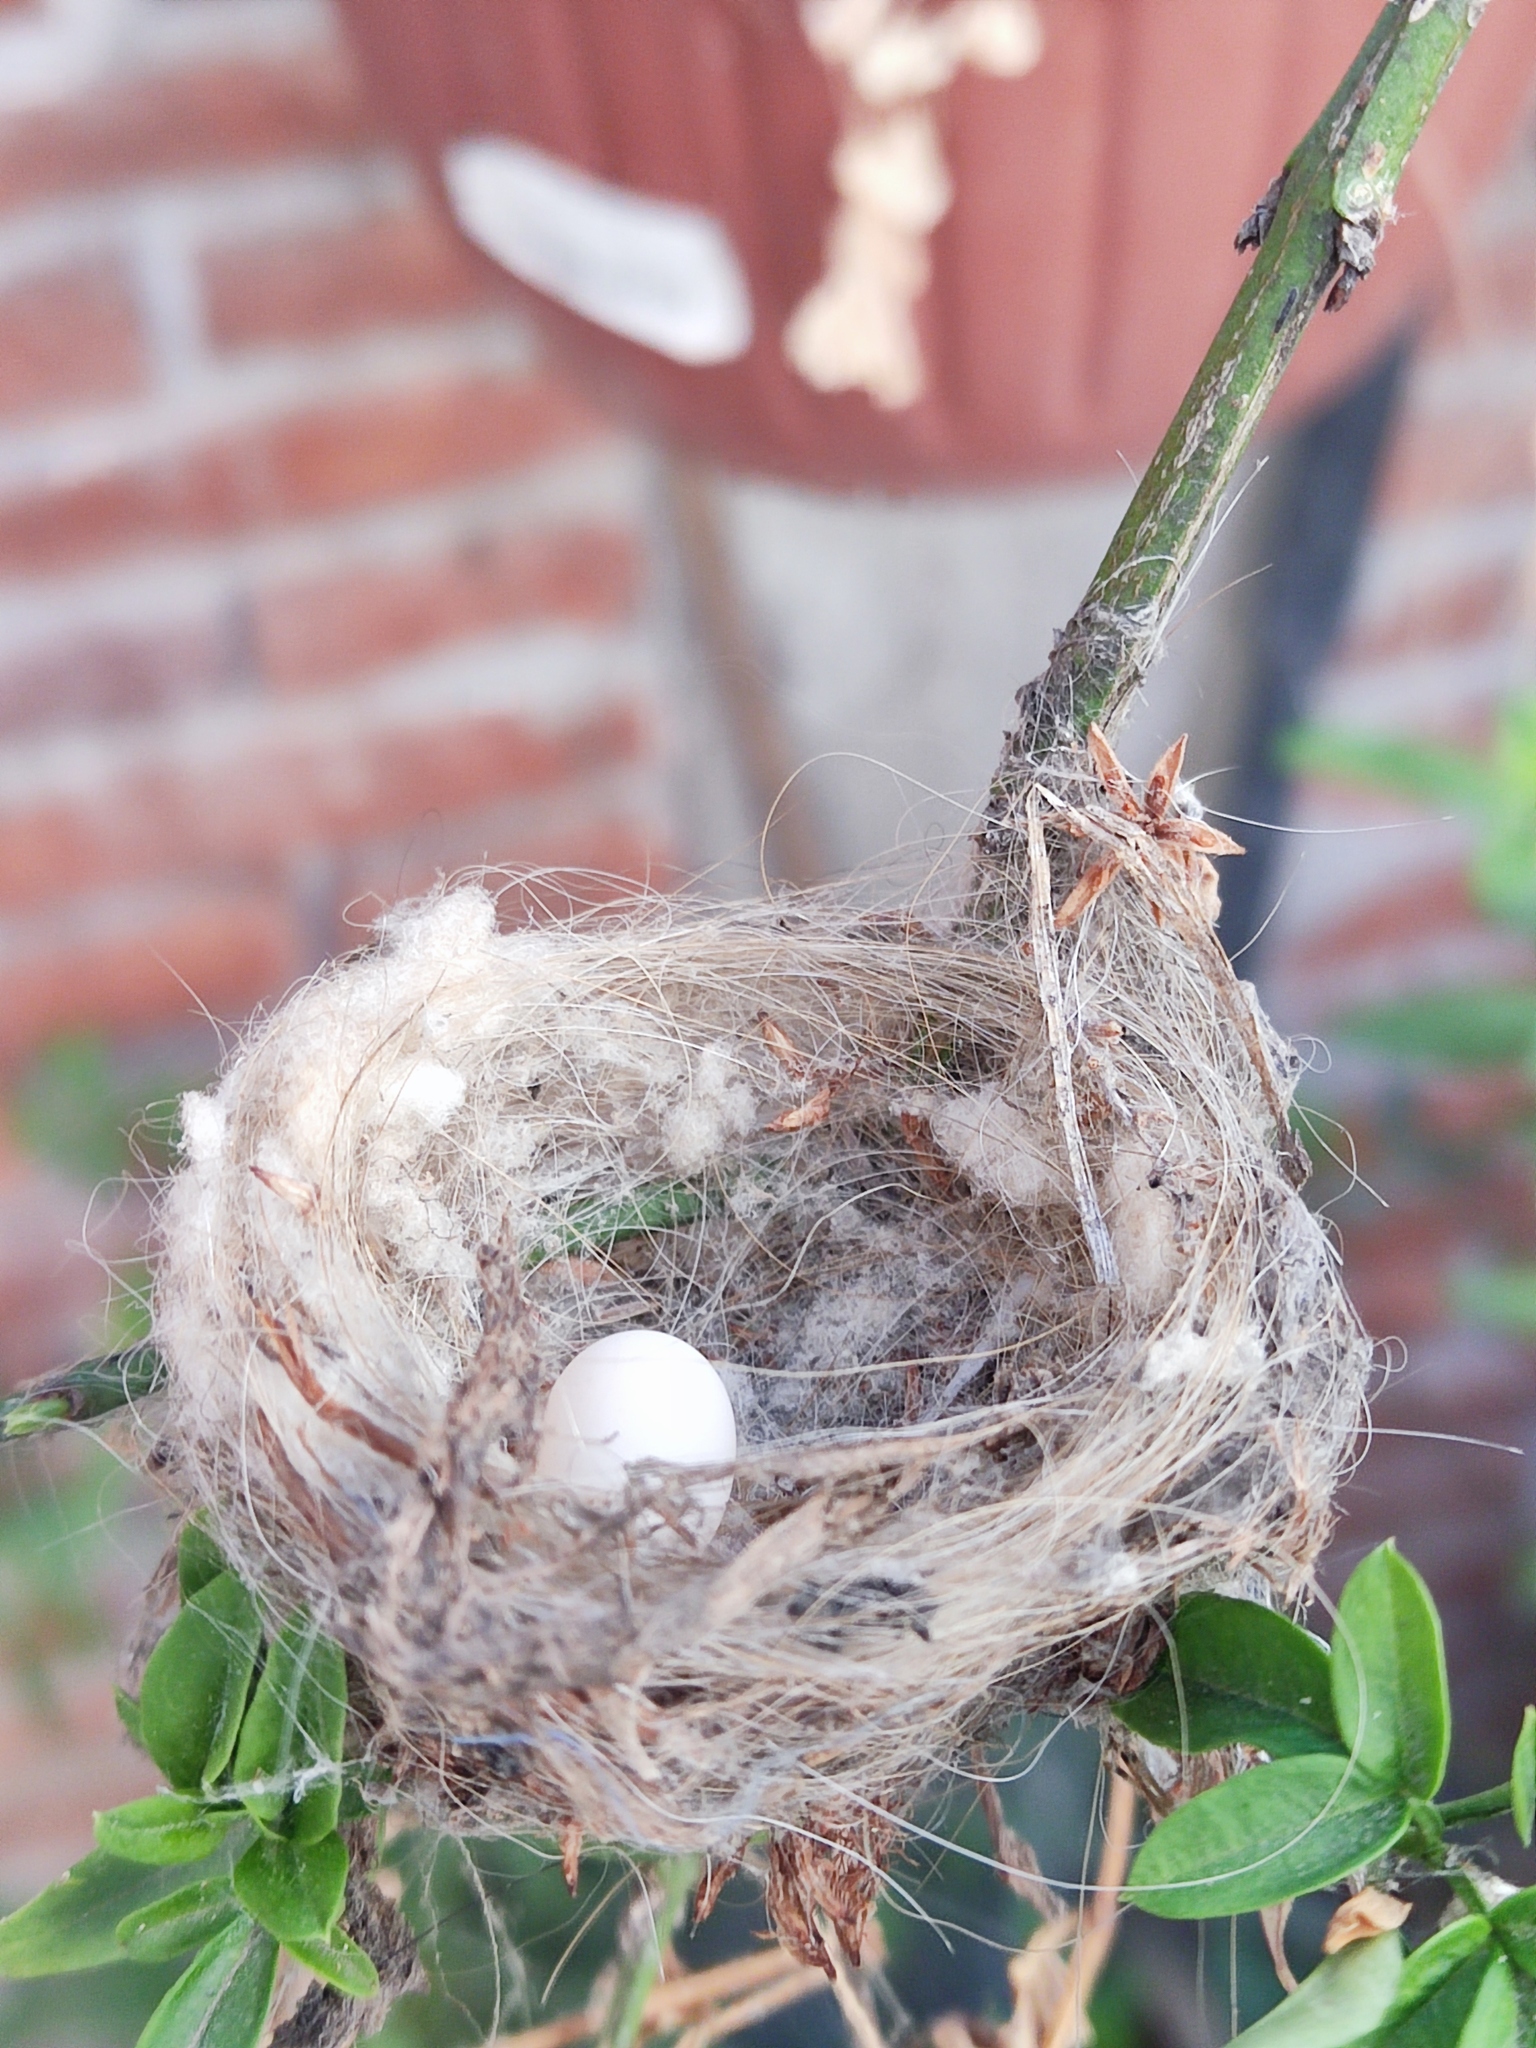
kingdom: Animalia
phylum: Chordata
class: Aves
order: Apodiformes
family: Trochilidae
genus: Cynanthus
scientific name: Cynanthus latirostris
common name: Broad-billed hummingbird
